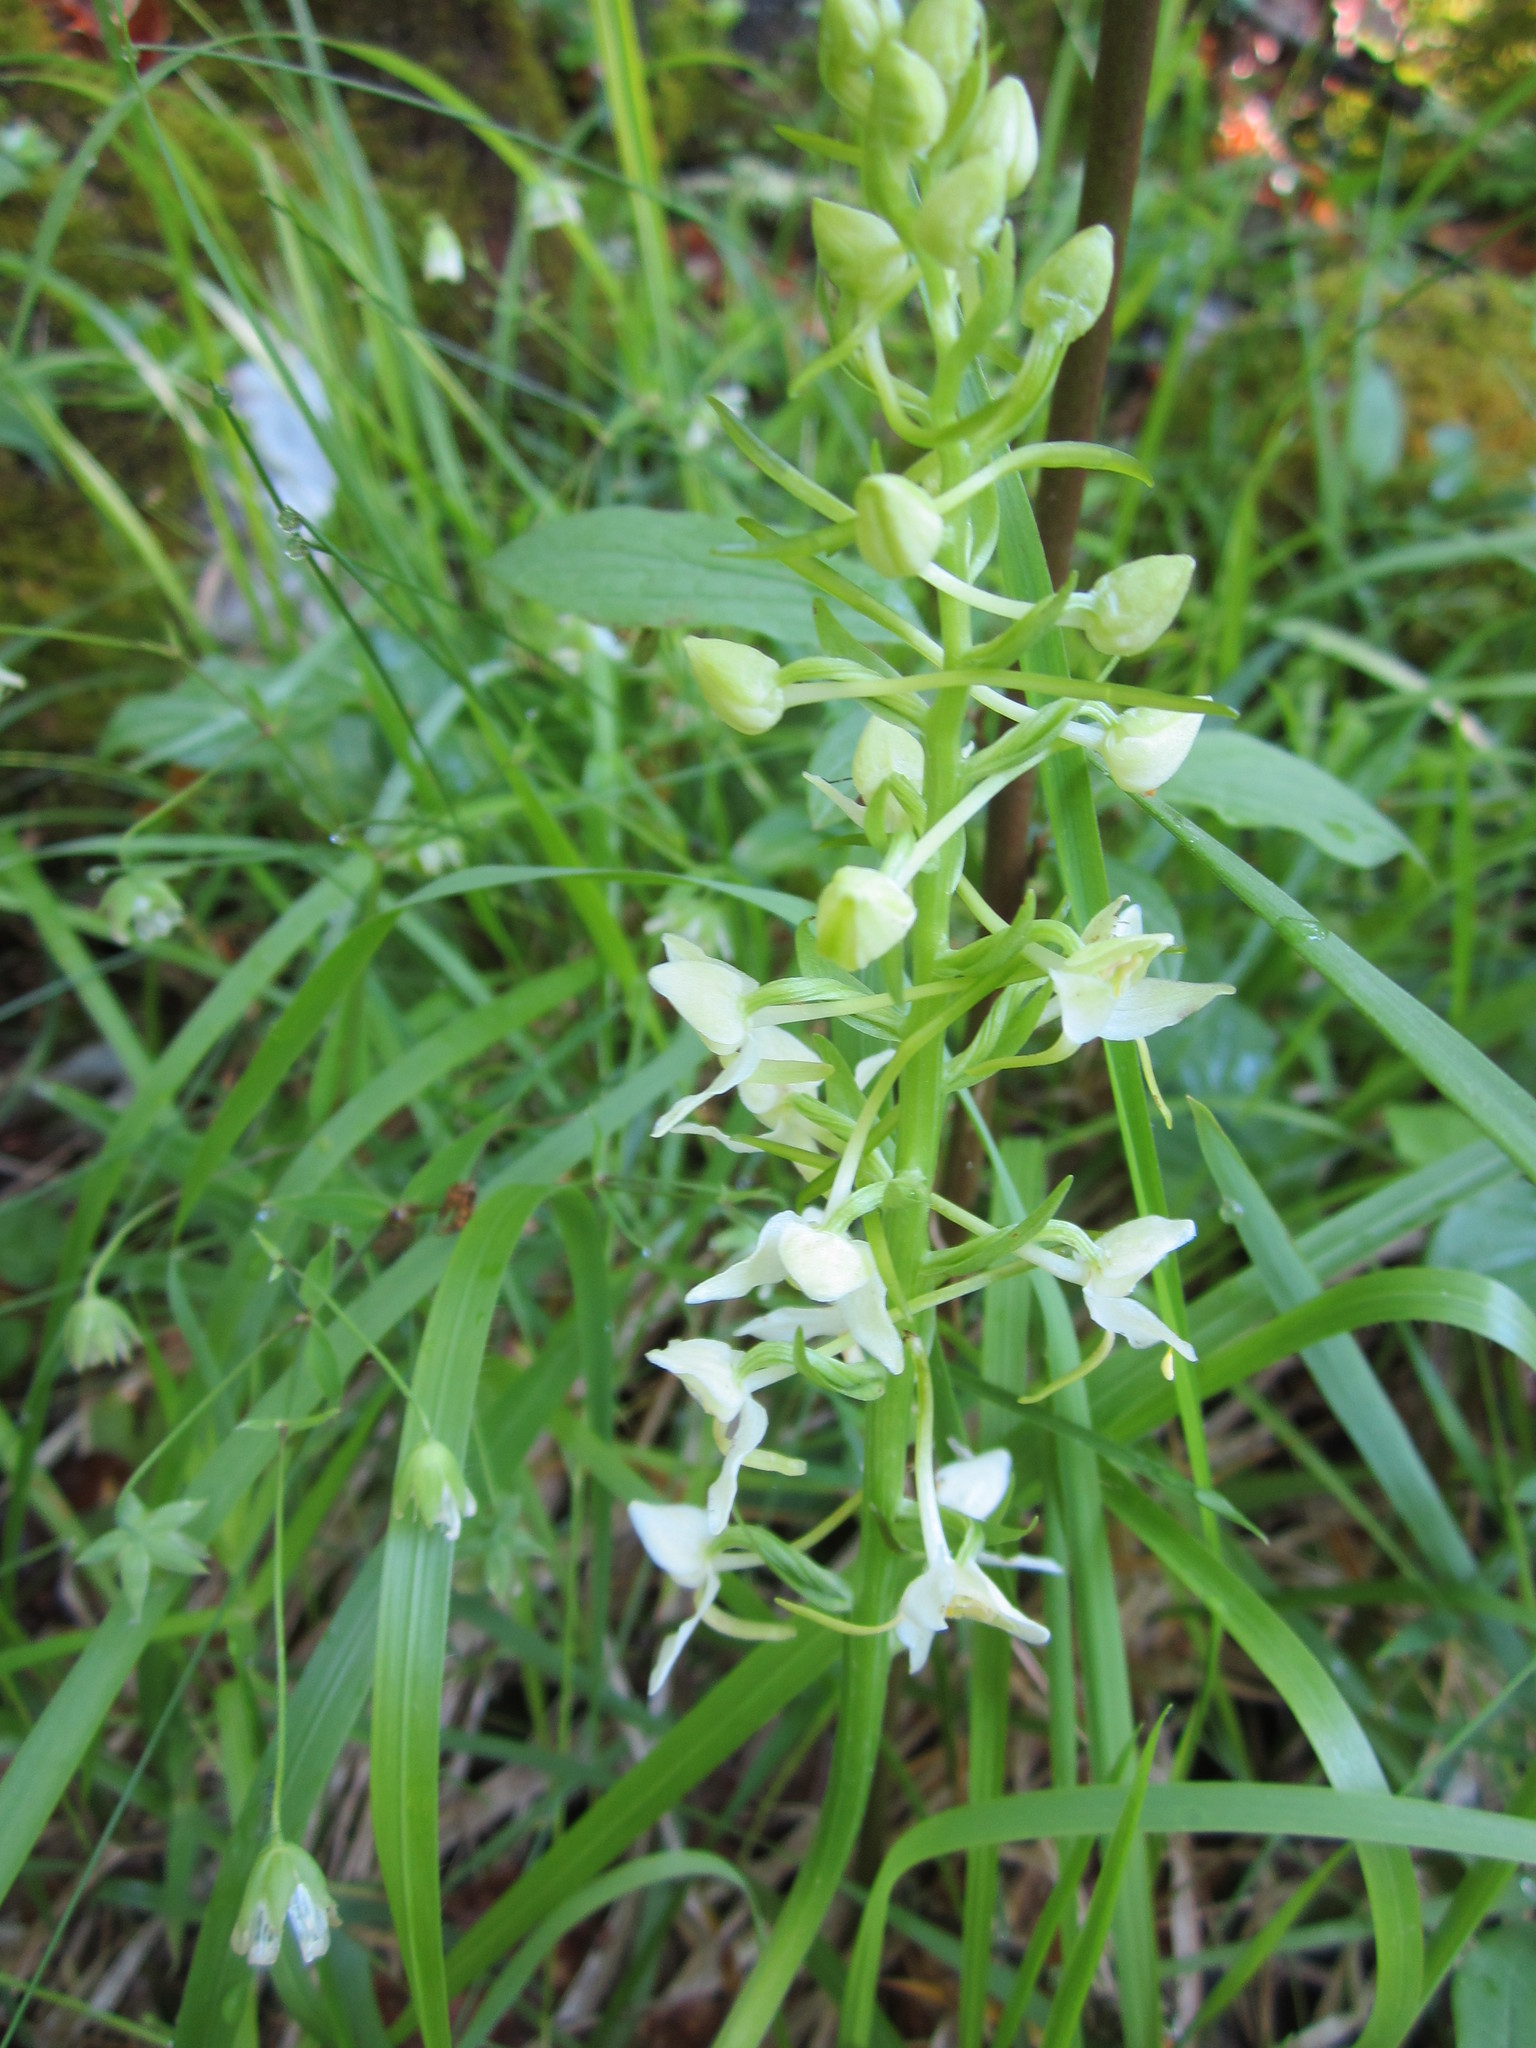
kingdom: Plantae
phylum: Tracheophyta
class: Liliopsida
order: Asparagales
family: Orchidaceae
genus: Platanthera
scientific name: Platanthera chlorantha
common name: Greater butterfly-orchid
